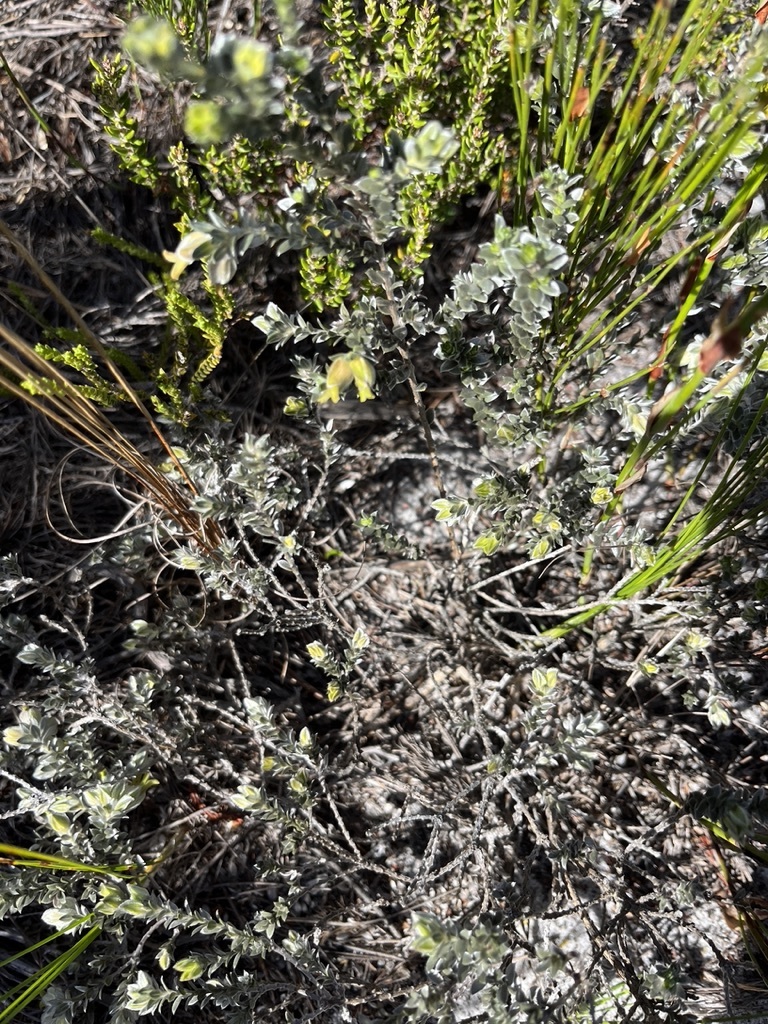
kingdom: Plantae
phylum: Tracheophyta
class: Magnoliopsida
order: Fabales
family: Fabaceae
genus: Amphithalea
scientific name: Amphithalea tomentosa
